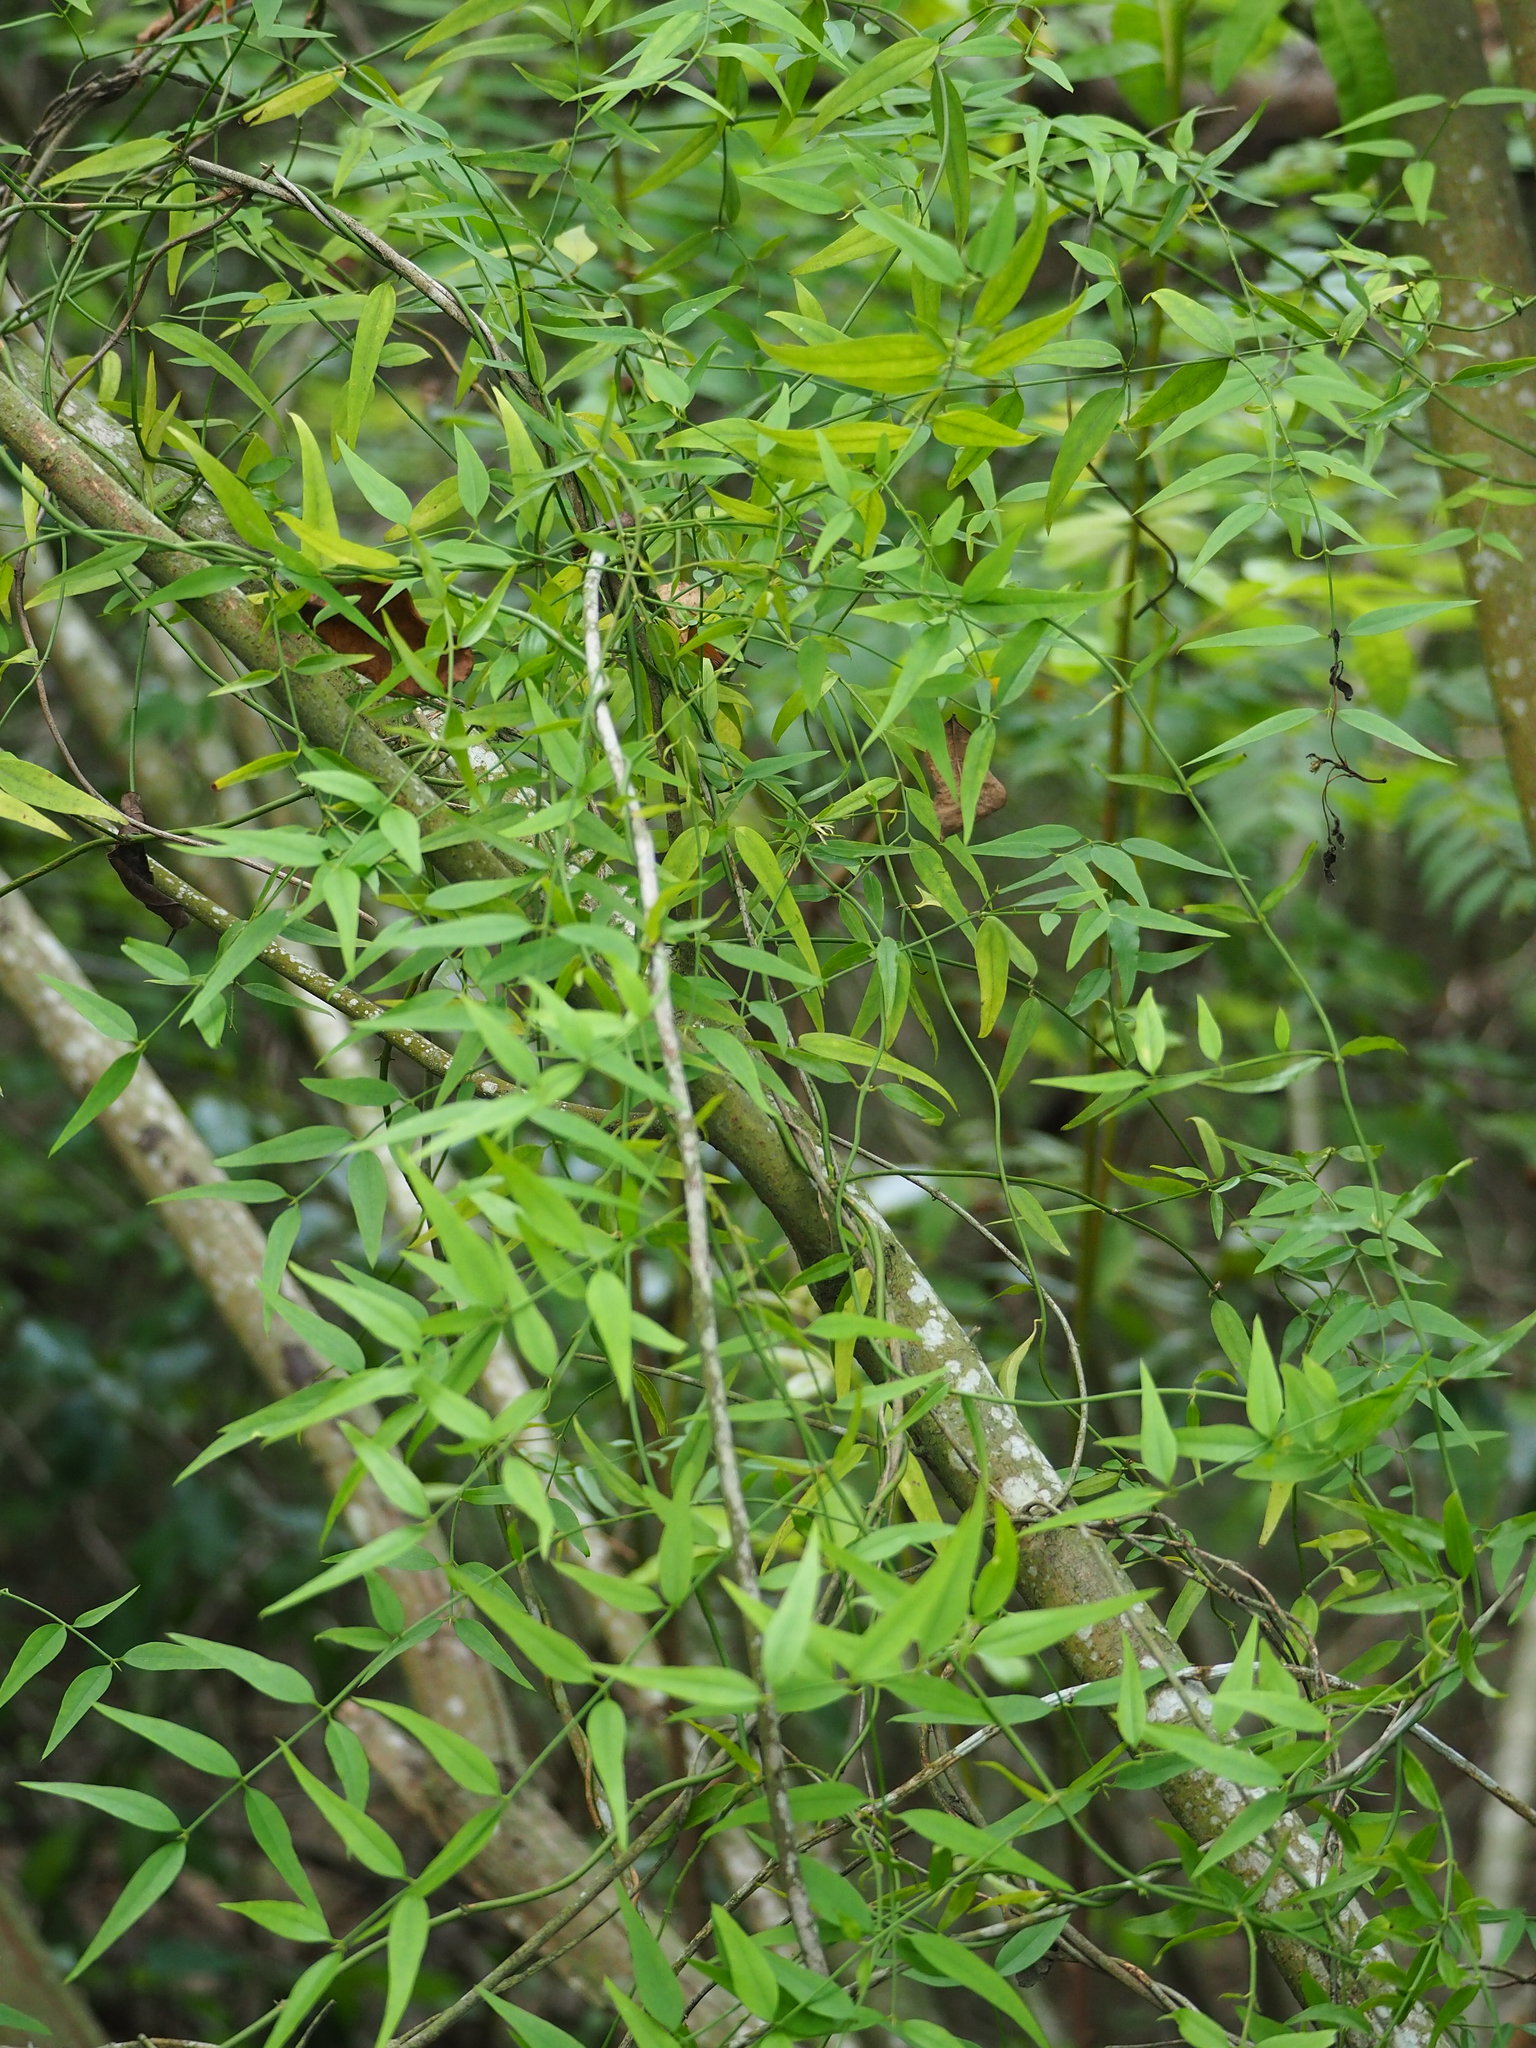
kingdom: Plantae
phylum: Tracheophyta
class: Magnoliopsida
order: Lamiales
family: Oleaceae
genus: Jasminum
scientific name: Jasminum nervosum
